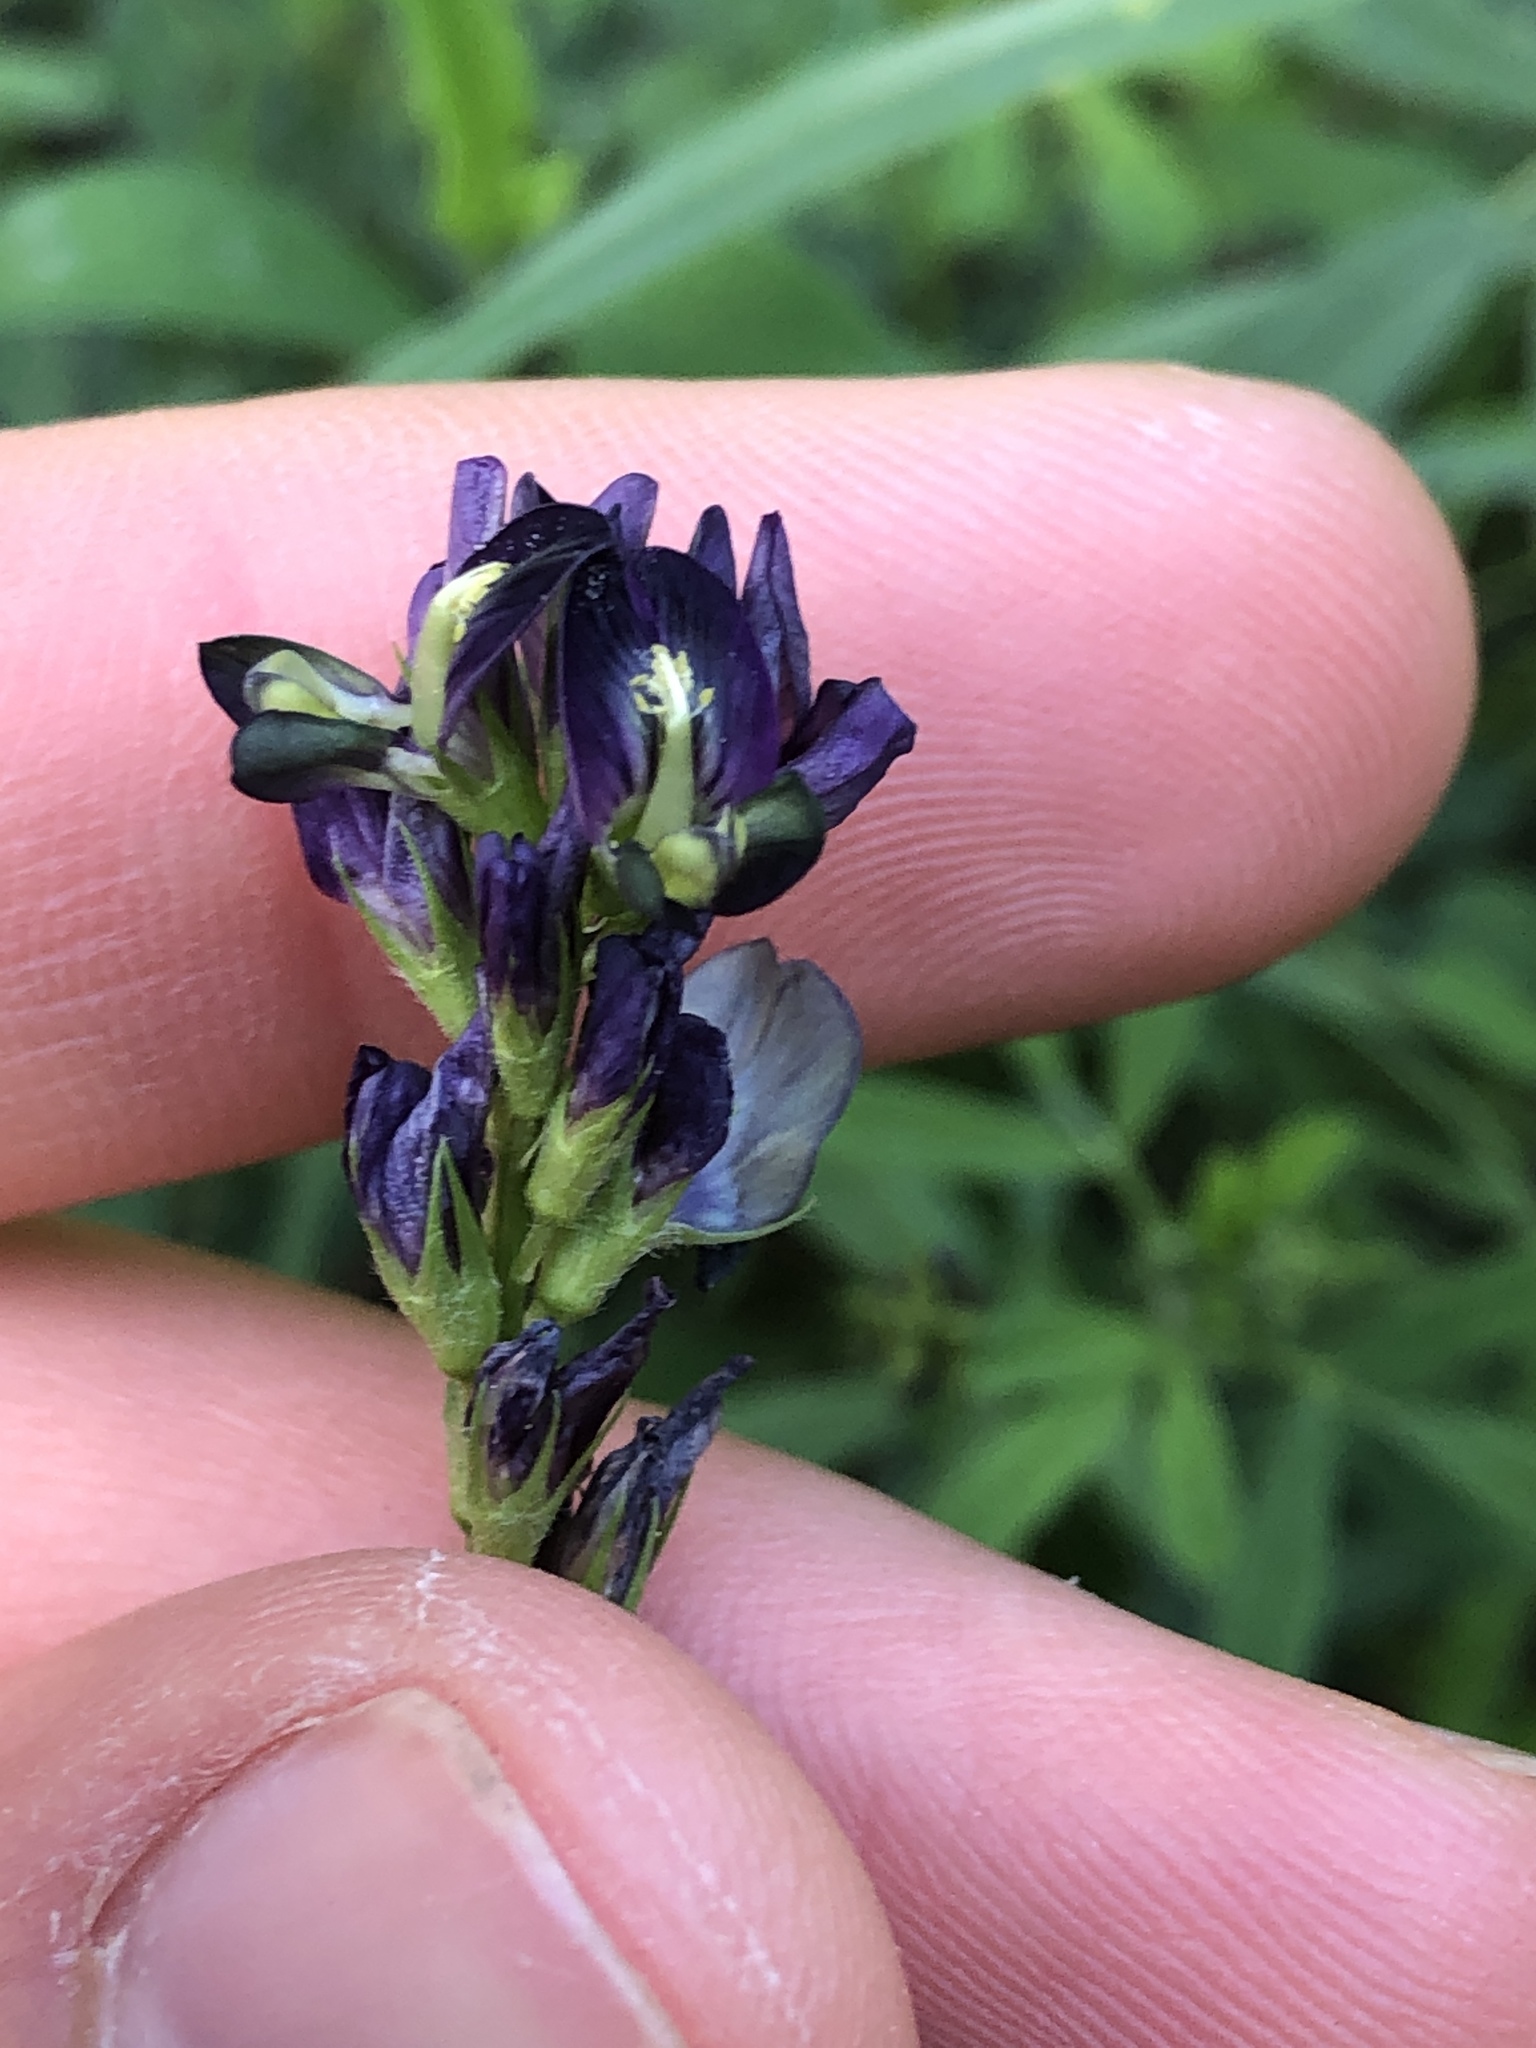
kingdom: Plantae
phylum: Tracheophyta
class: Magnoliopsida
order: Fabales
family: Fabaceae
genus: Medicago
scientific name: Medicago varia
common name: Sand lucerne
